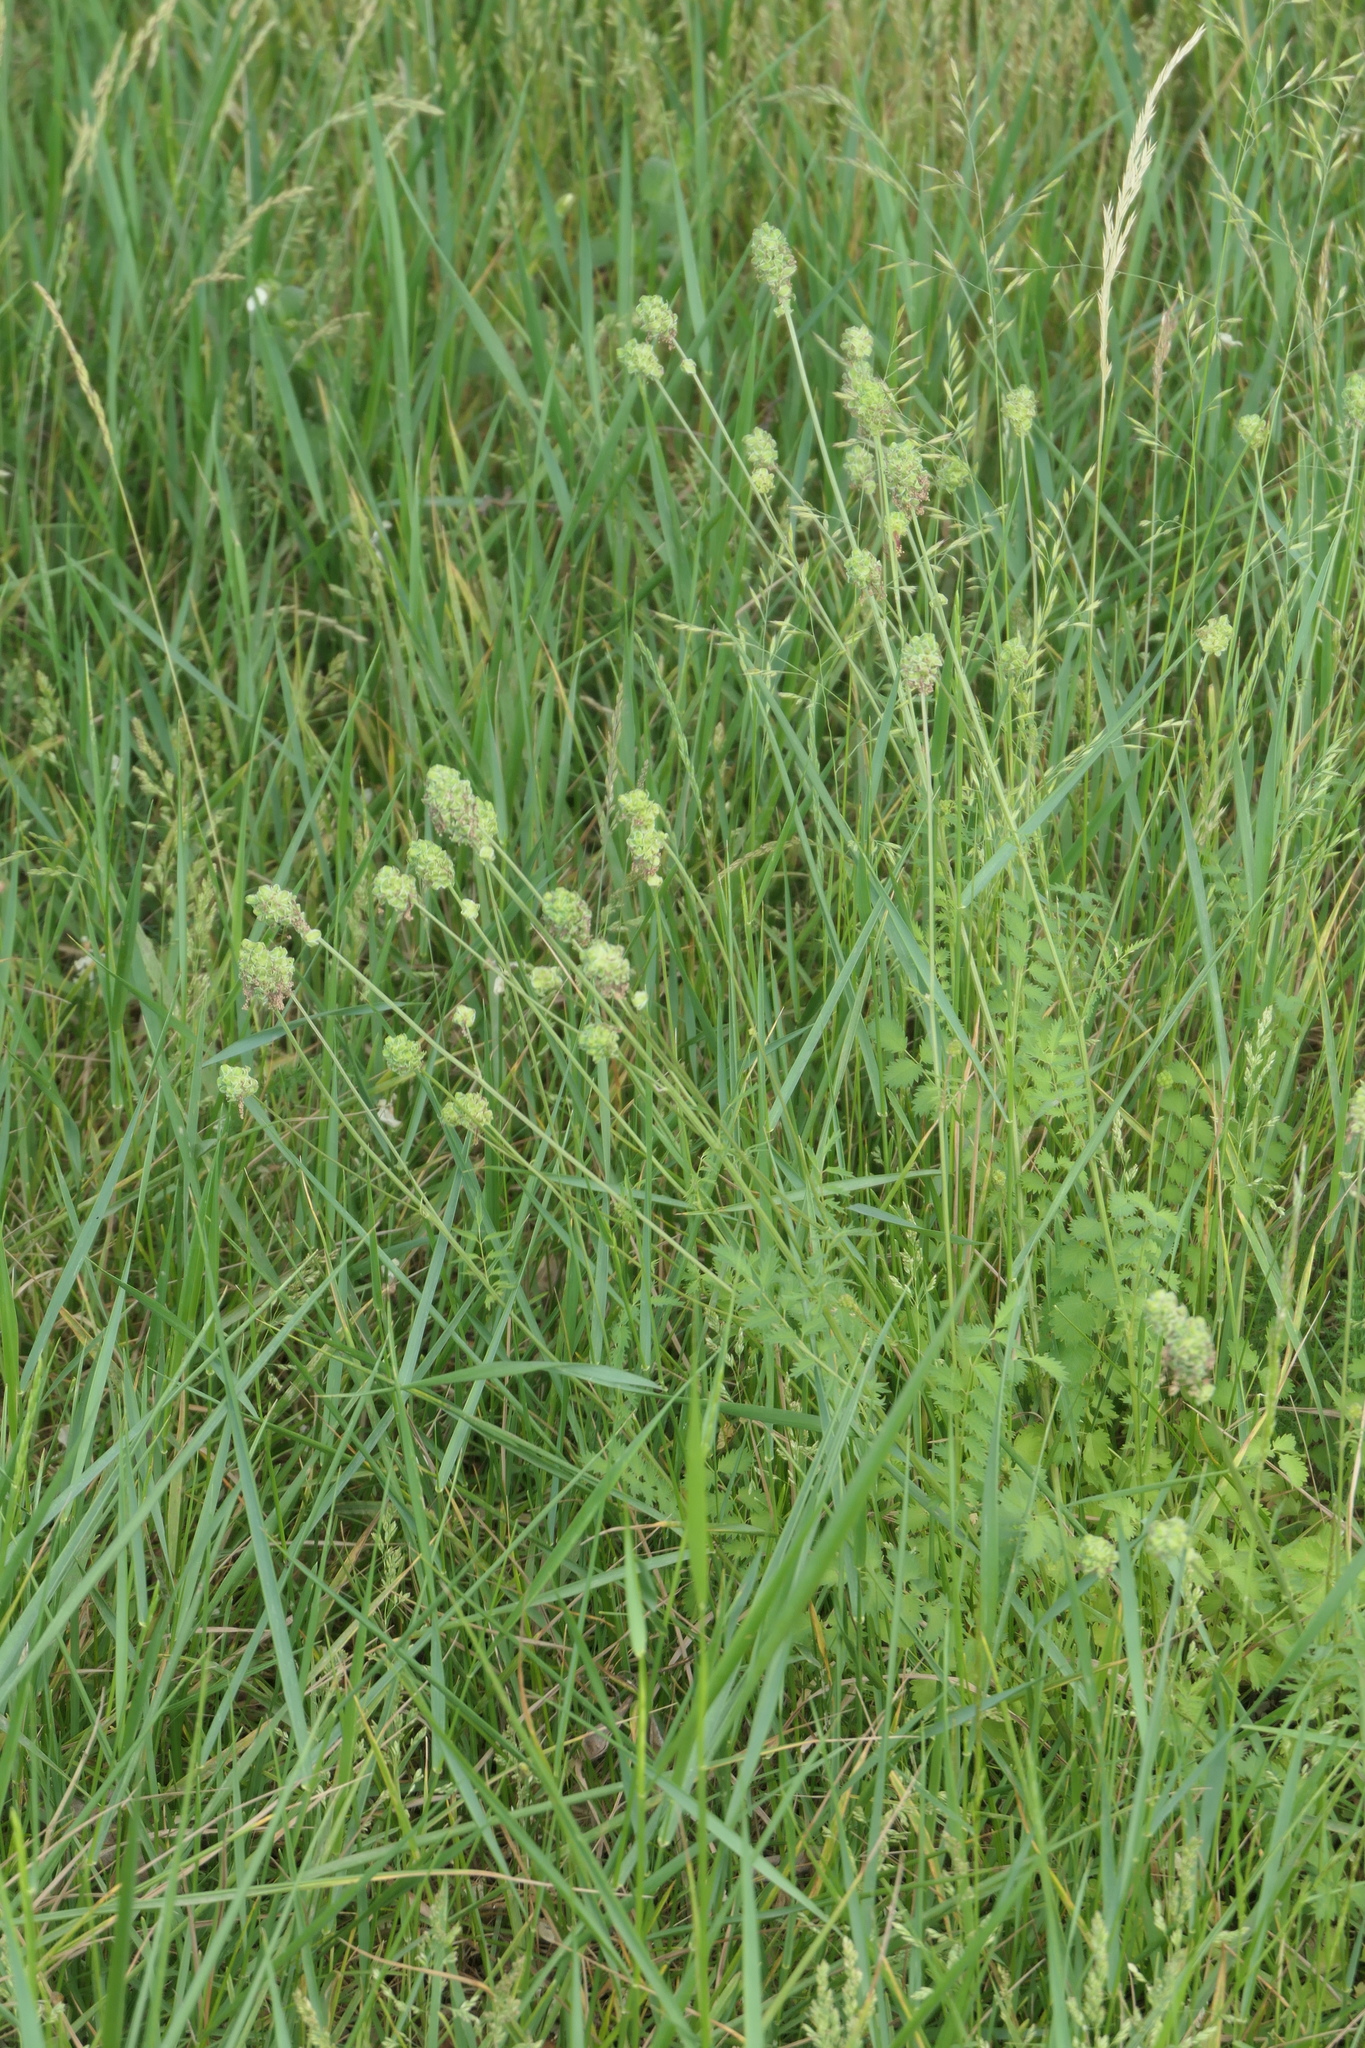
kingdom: Plantae
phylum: Tracheophyta
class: Magnoliopsida
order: Rosales
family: Rosaceae
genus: Poterium
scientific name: Poterium sanguisorba
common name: Salad burnet
